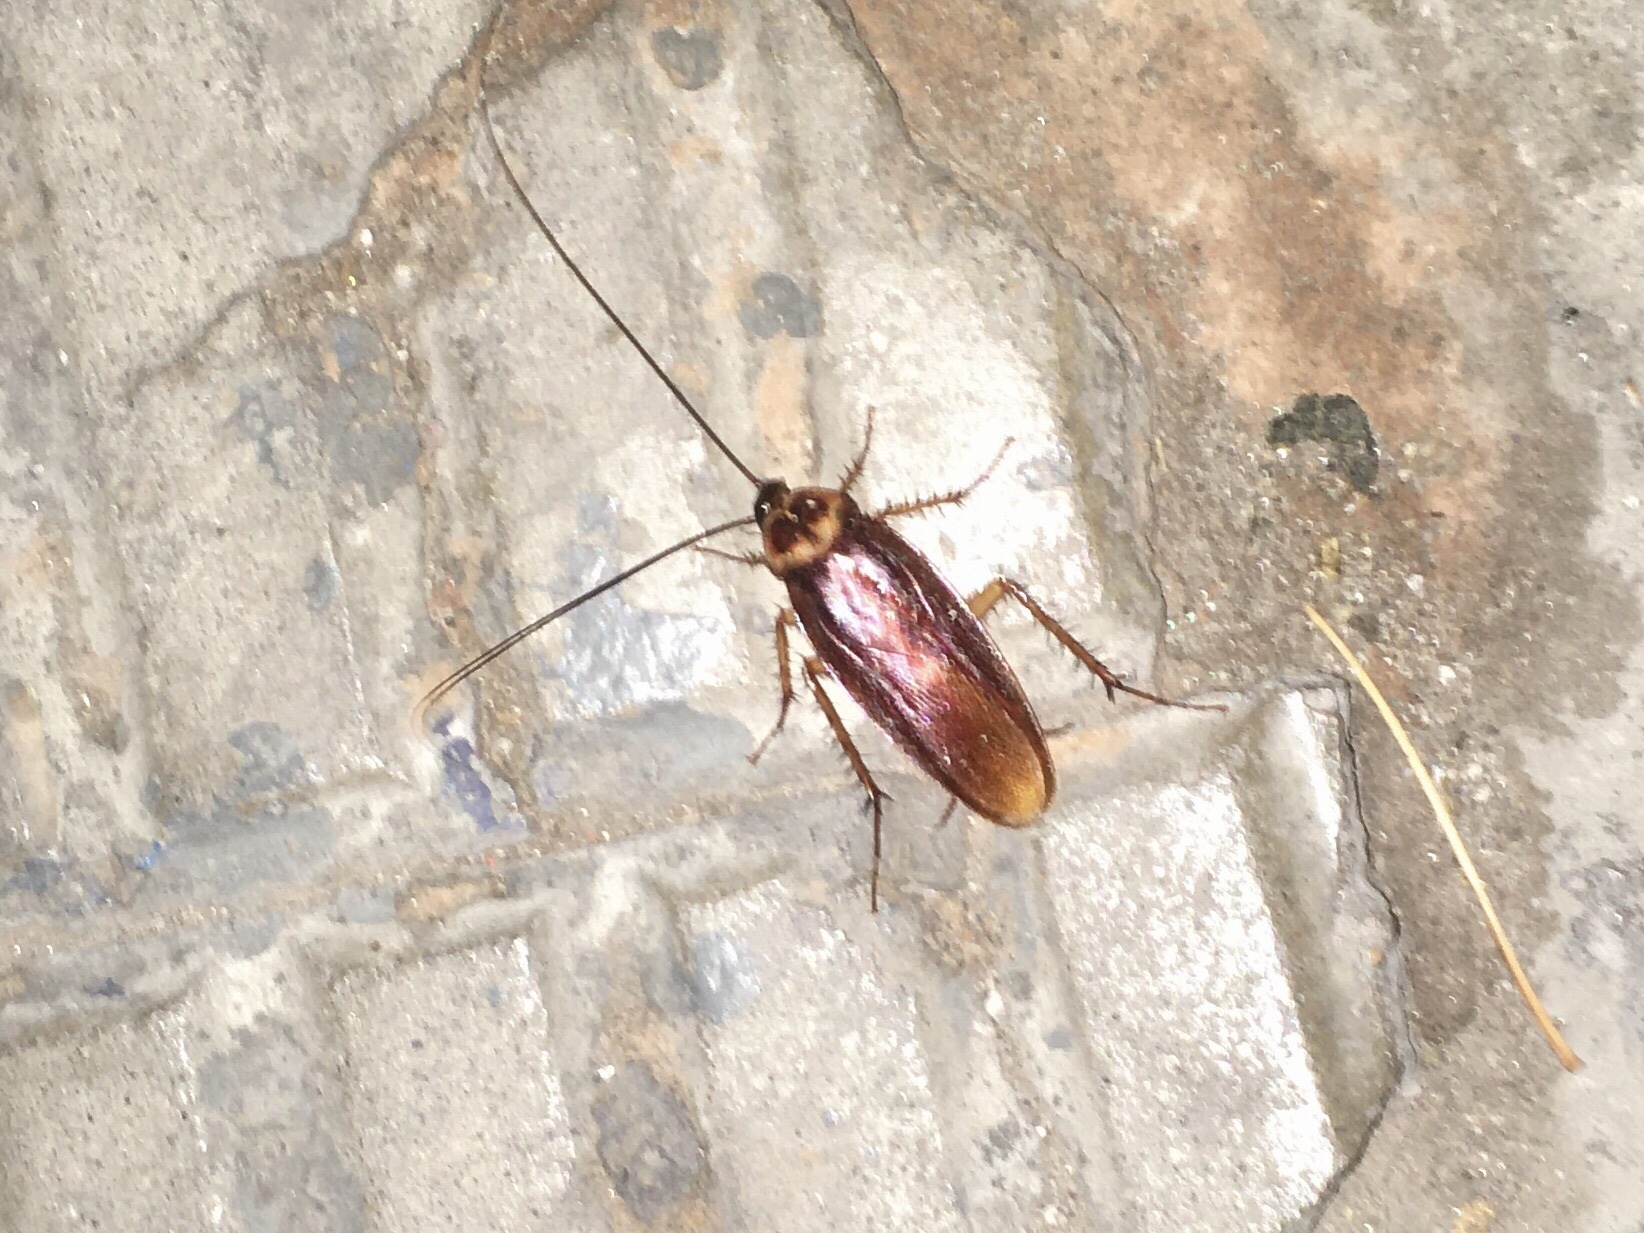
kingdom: Animalia
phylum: Arthropoda
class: Insecta
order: Blattodea
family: Blattidae
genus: Periplaneta
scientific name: Periplaneta americana
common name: American cockroach
